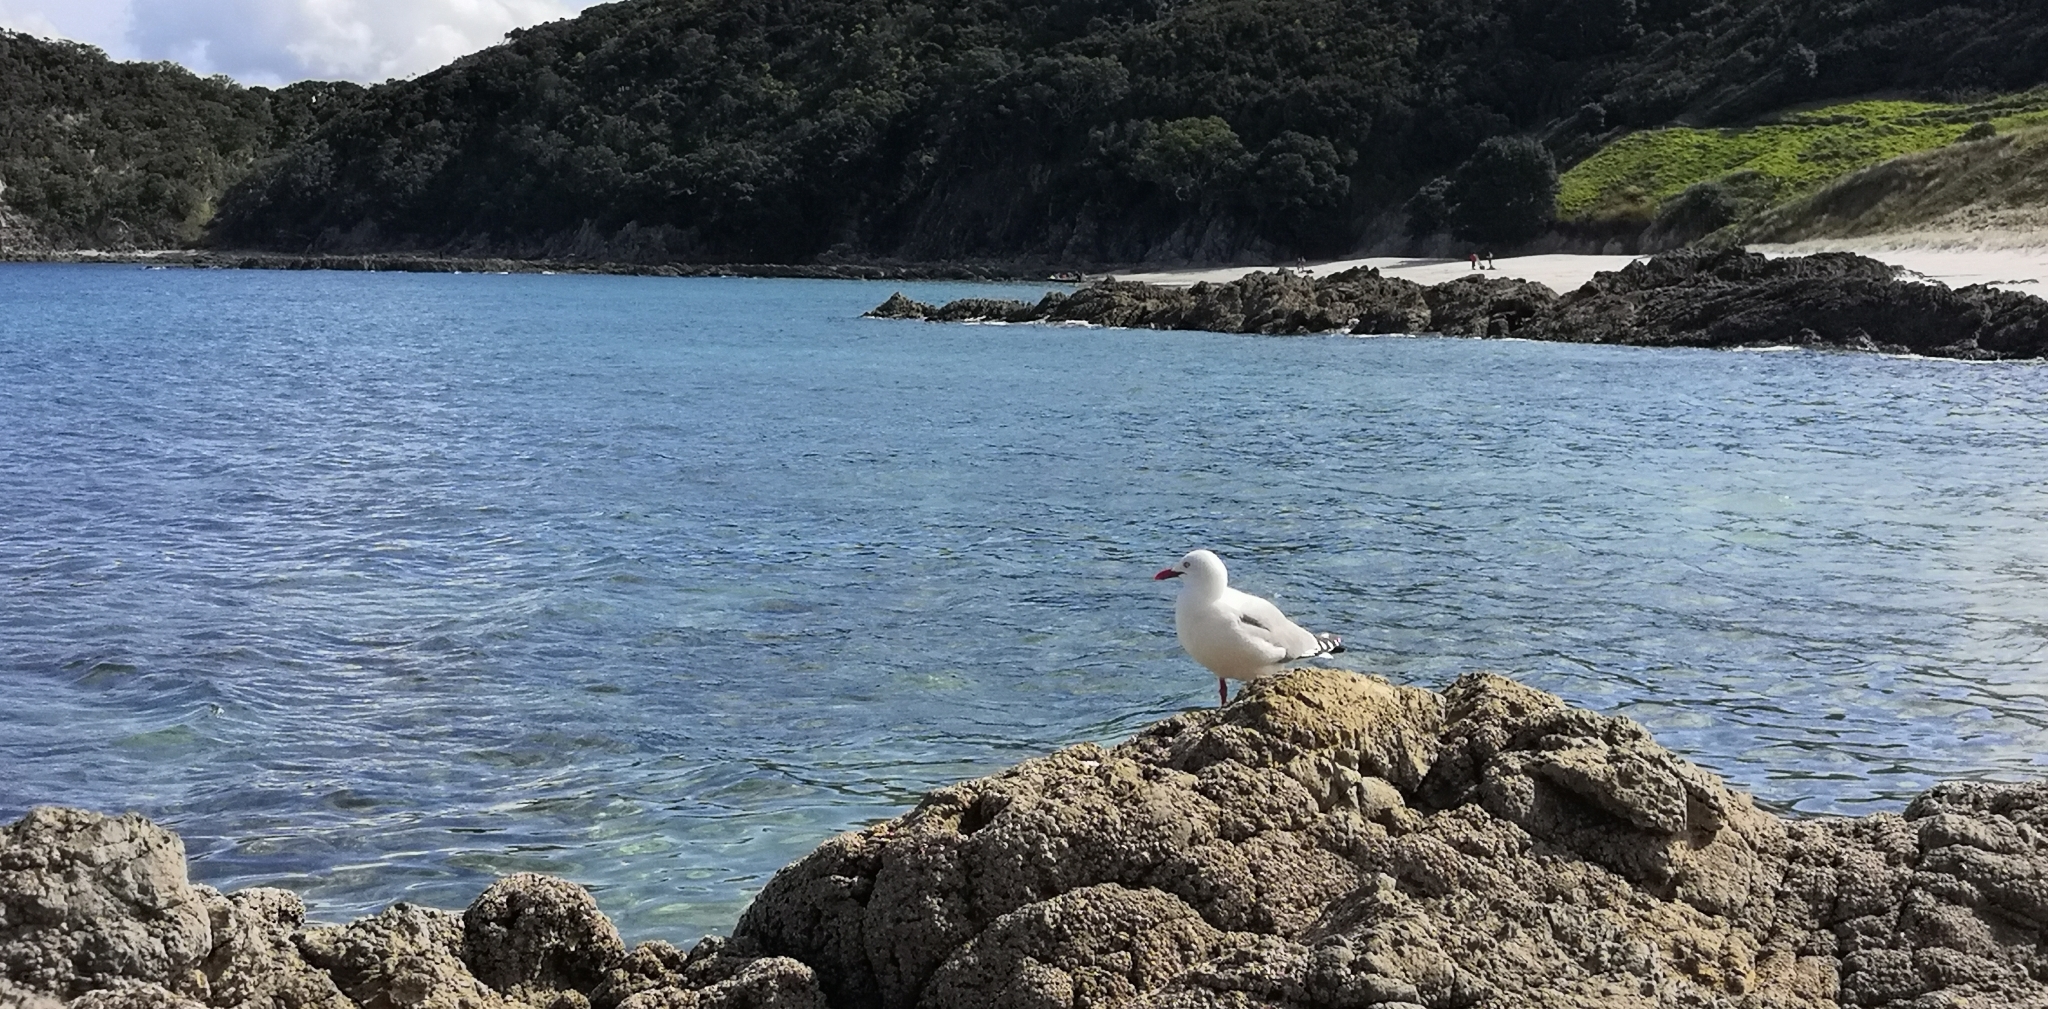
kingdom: Animalia
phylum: Chordata
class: Aves
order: Charadriiformes
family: Laridae
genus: Chroicocephalus
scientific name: Chroicocephalus novaehollandiae
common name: Silver gull
